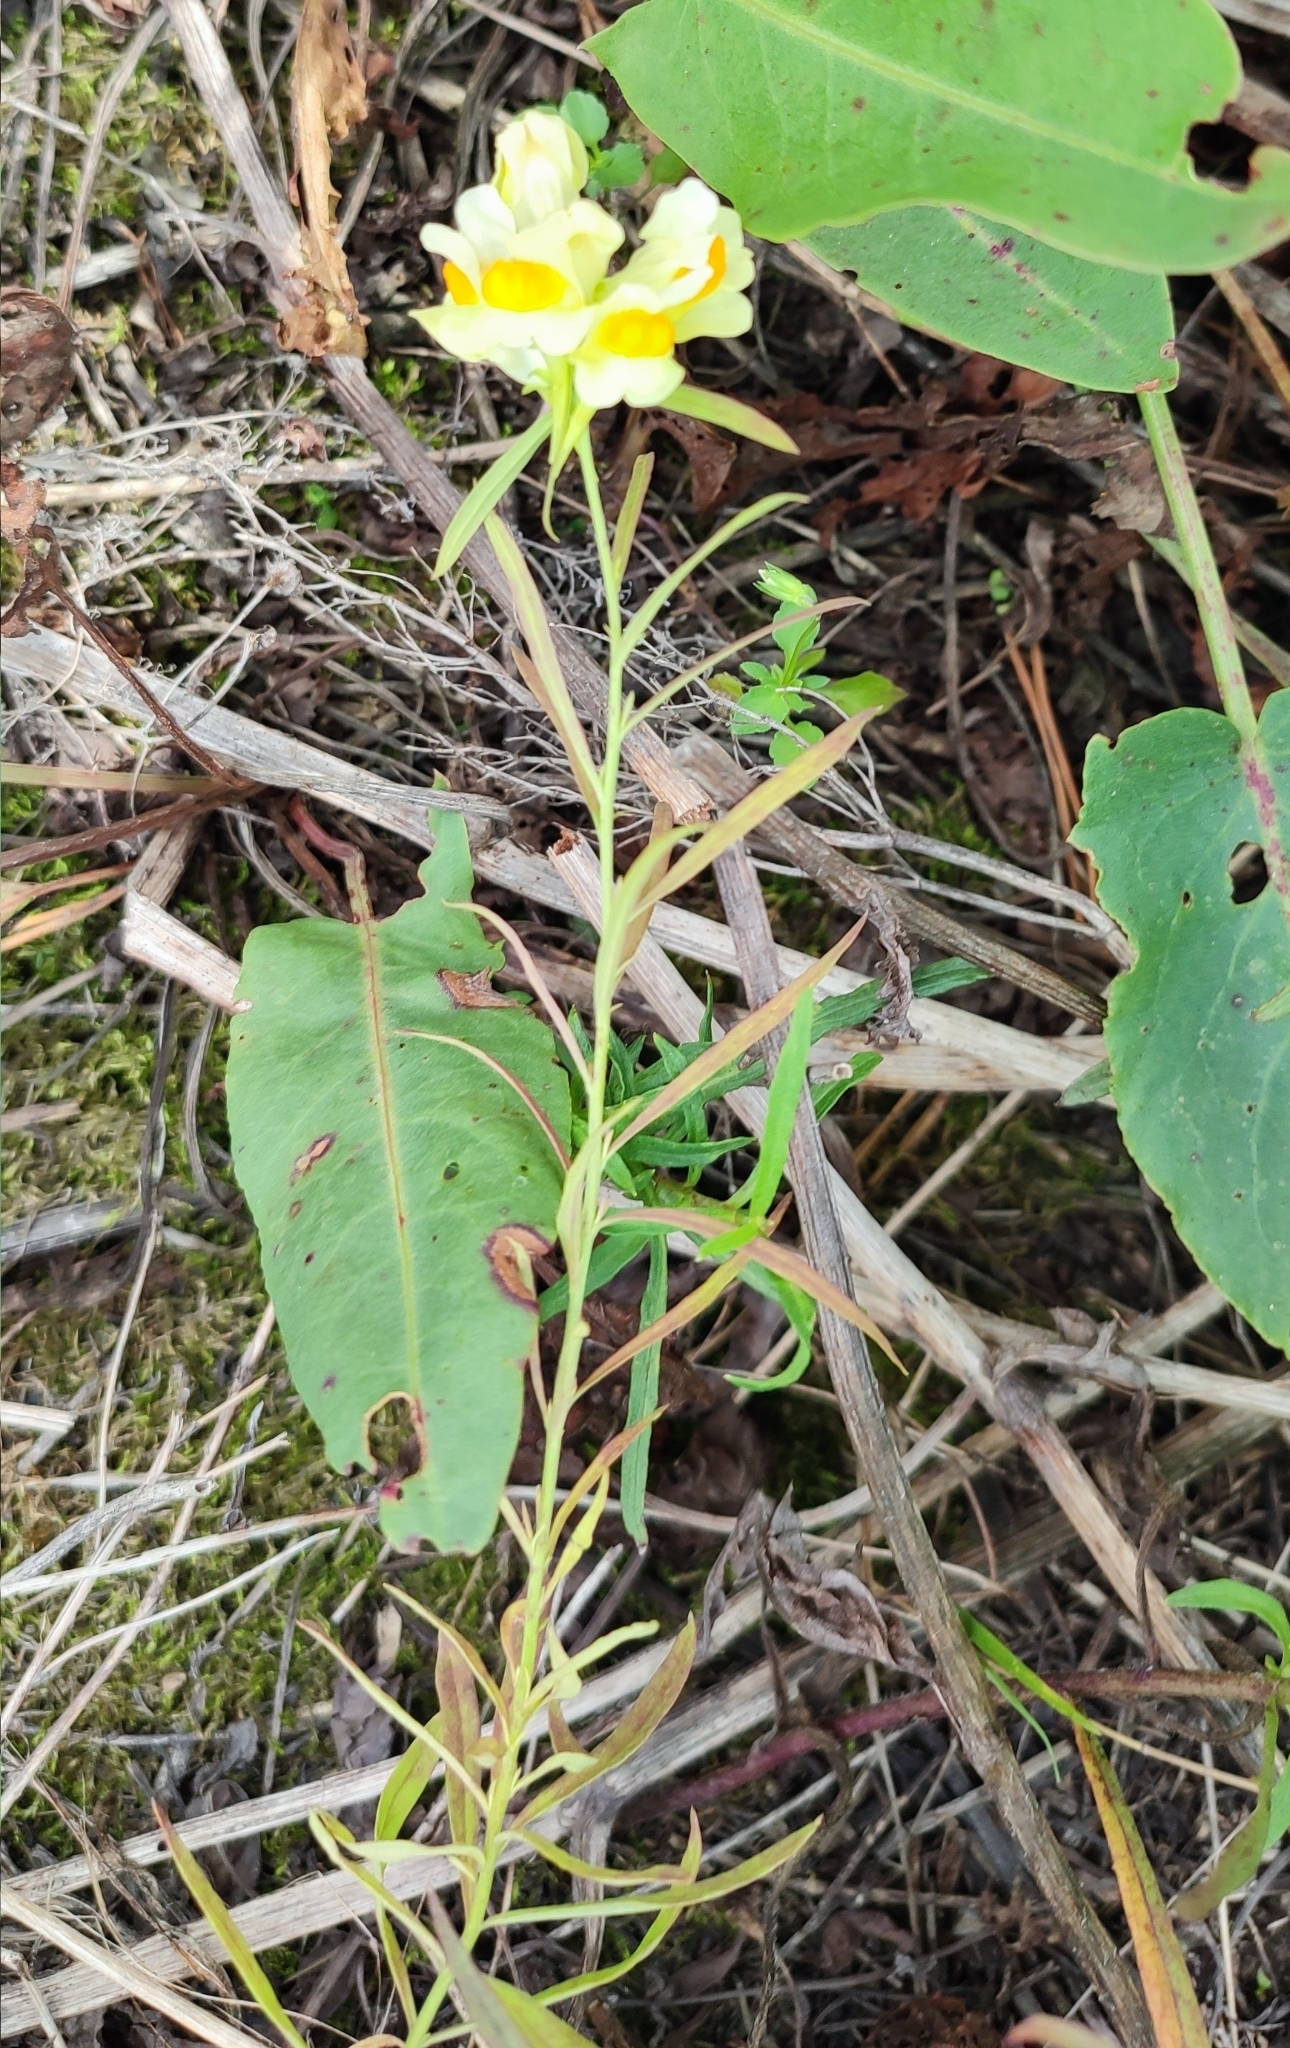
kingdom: Plantae
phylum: Tracheophyta
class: Magnoliopsida
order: Lamiales
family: Plantaginaceae
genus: Linaria
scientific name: Linaria vulgaris
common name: Butter and eggs
